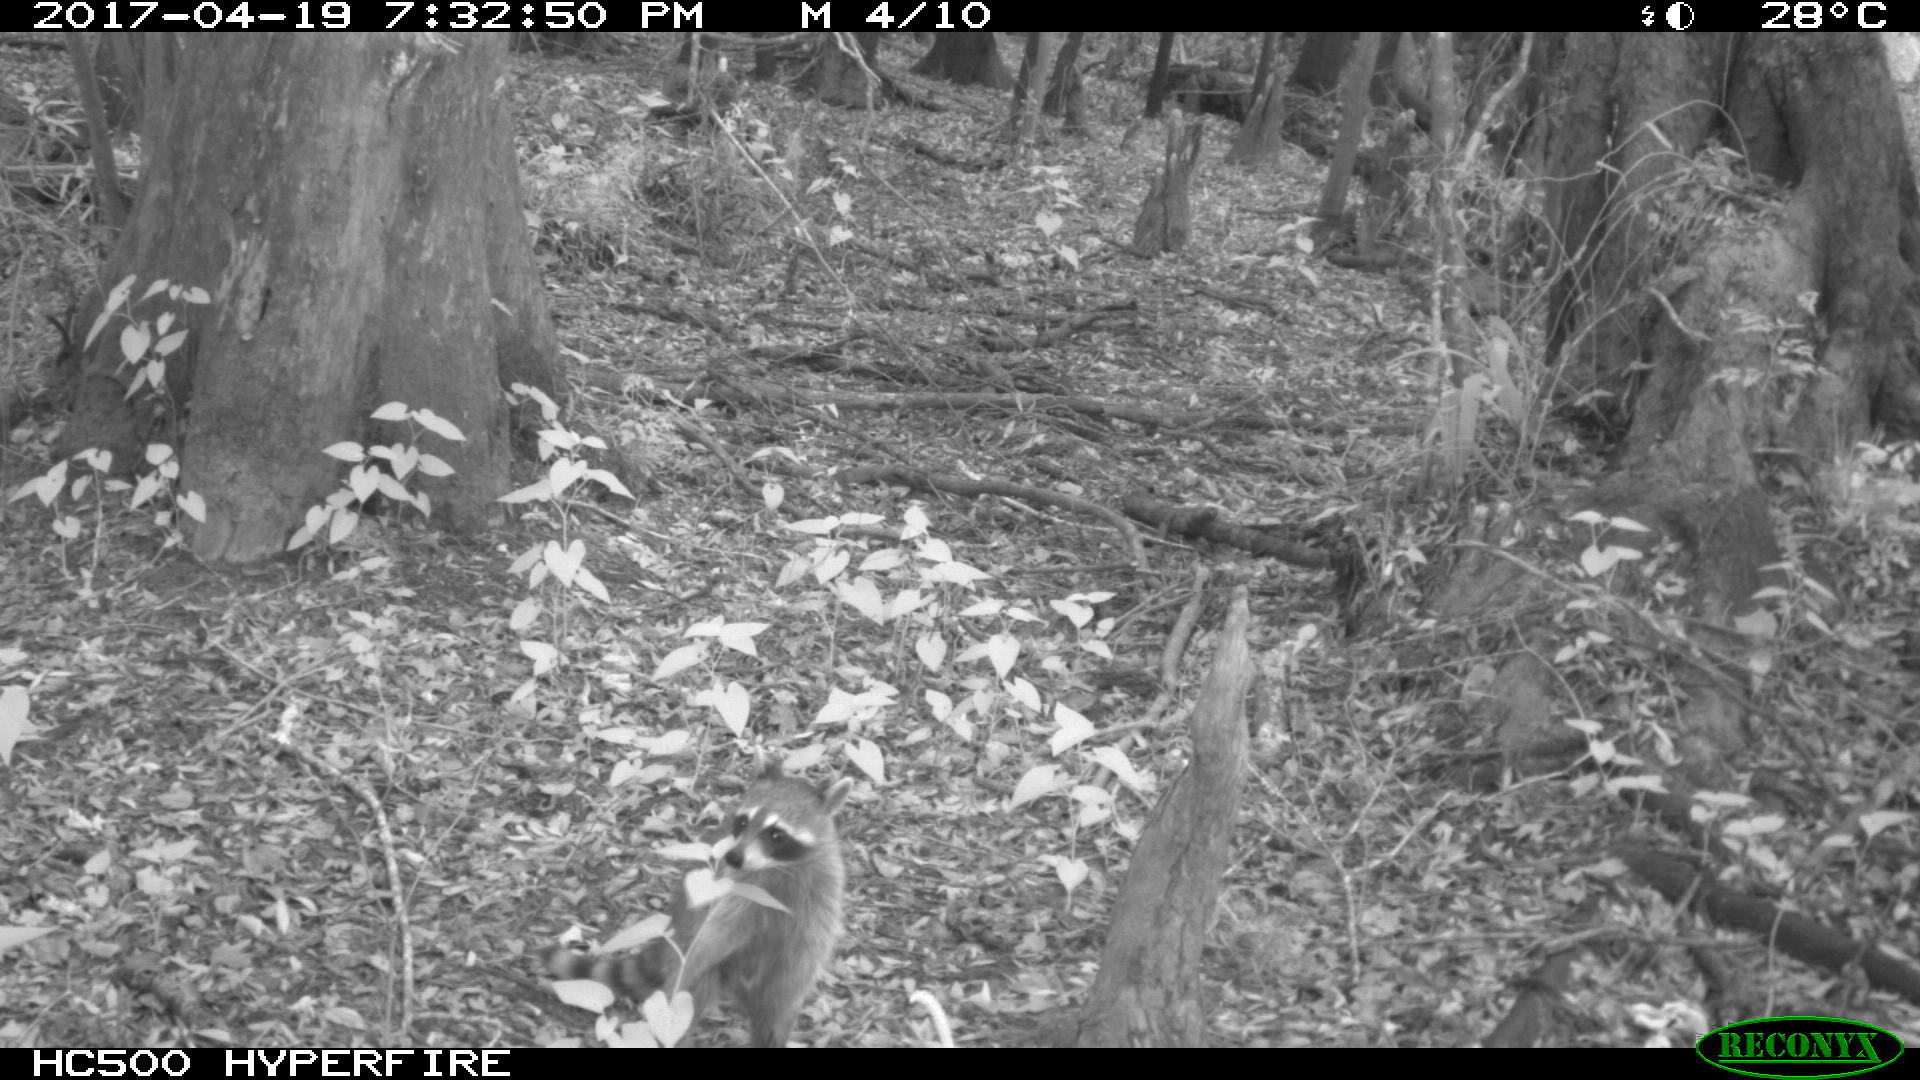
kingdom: Animalia
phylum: Chordata
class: Mammalia
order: Carnivora
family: Procyonidae
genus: Procyon
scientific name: Procyon lotor
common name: Raccoon
